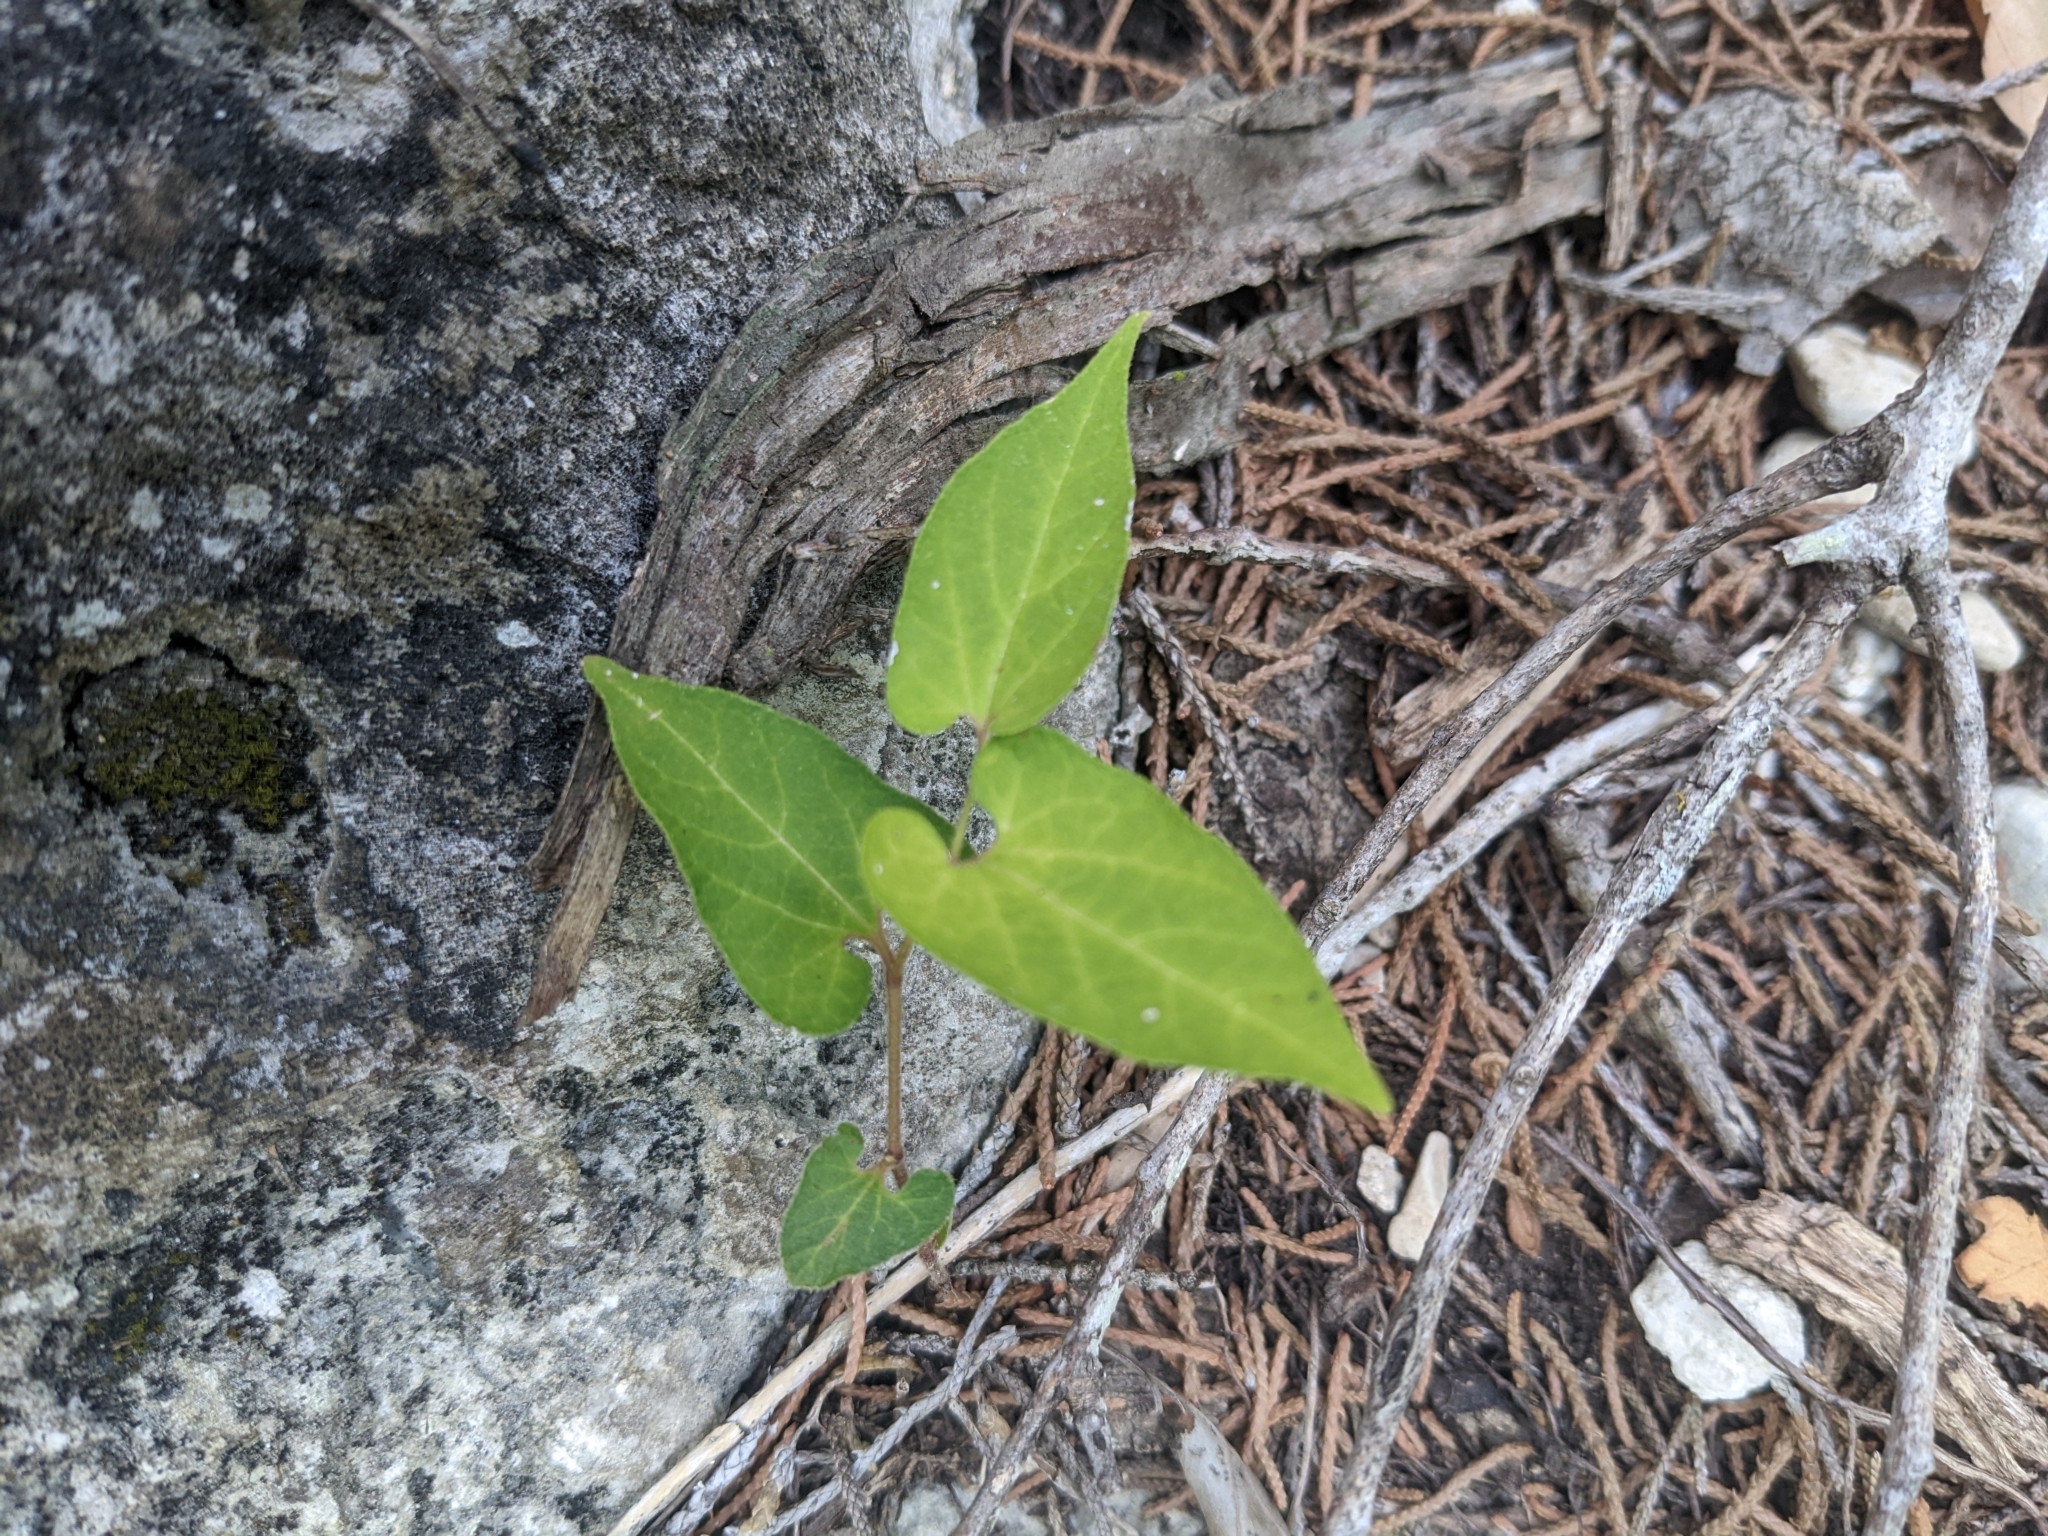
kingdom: Plantae
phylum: Tracheophyta
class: Magnoliopsida
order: Piperales
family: Aristolochiaceae
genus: Endodeca
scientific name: Endodeca serpentaria
